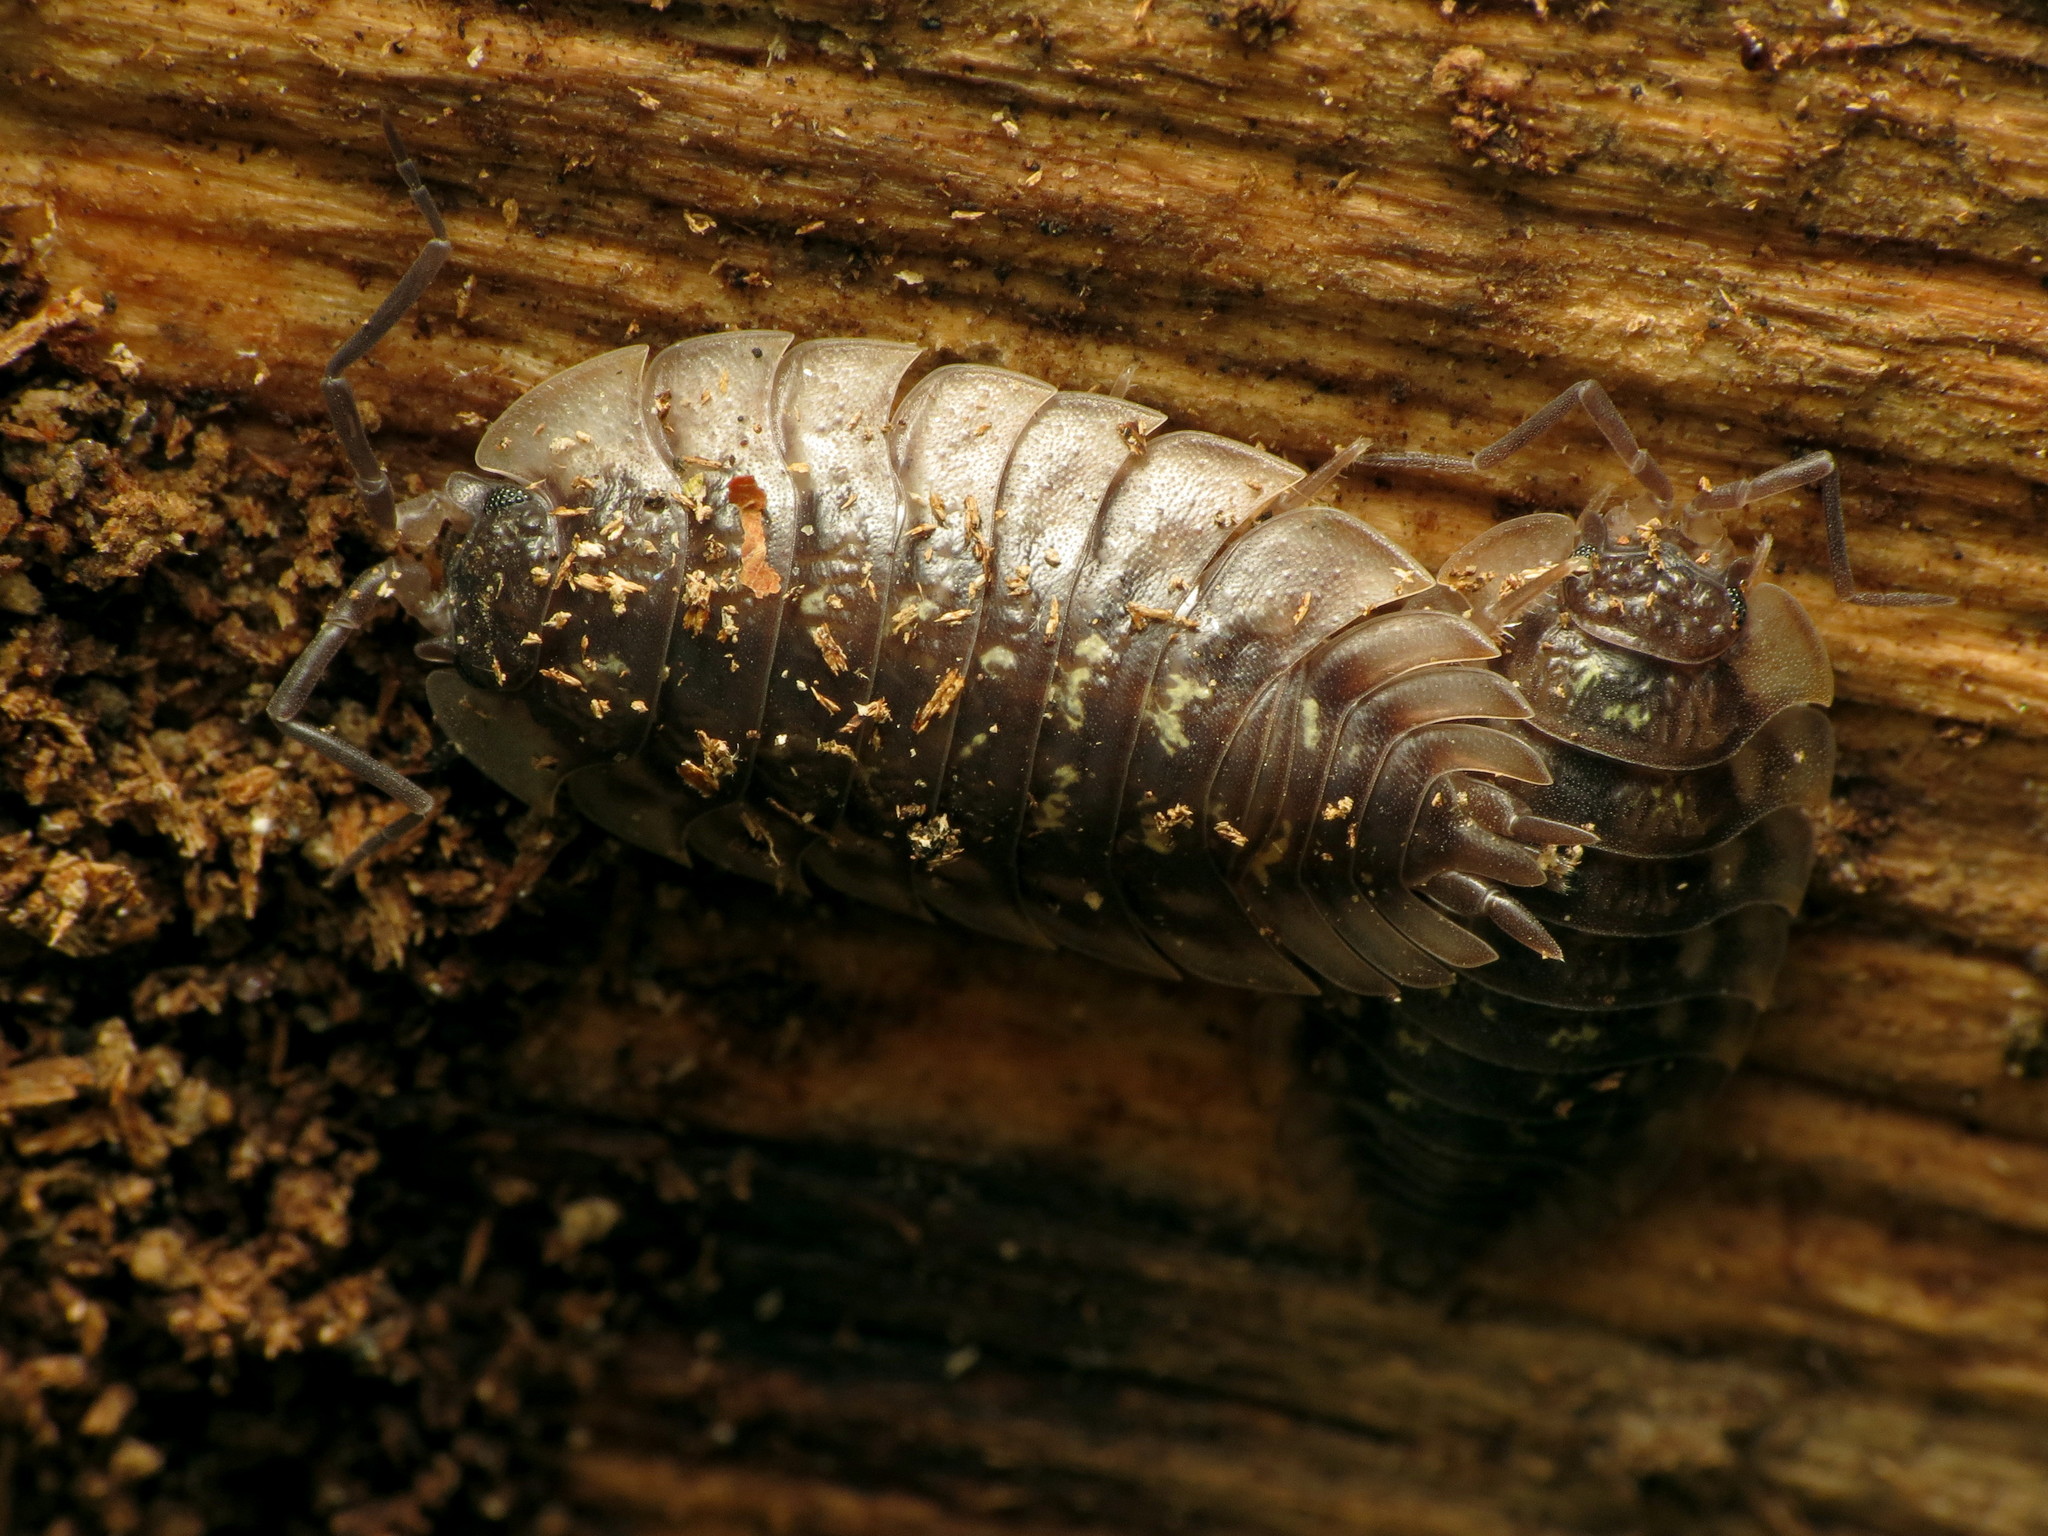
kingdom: Animalia
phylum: Arthropoda
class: Malacostraca
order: Isopoda
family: Oniscidae
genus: Oniscus
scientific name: Oniscus asellus
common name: Common shiny woodlouse
